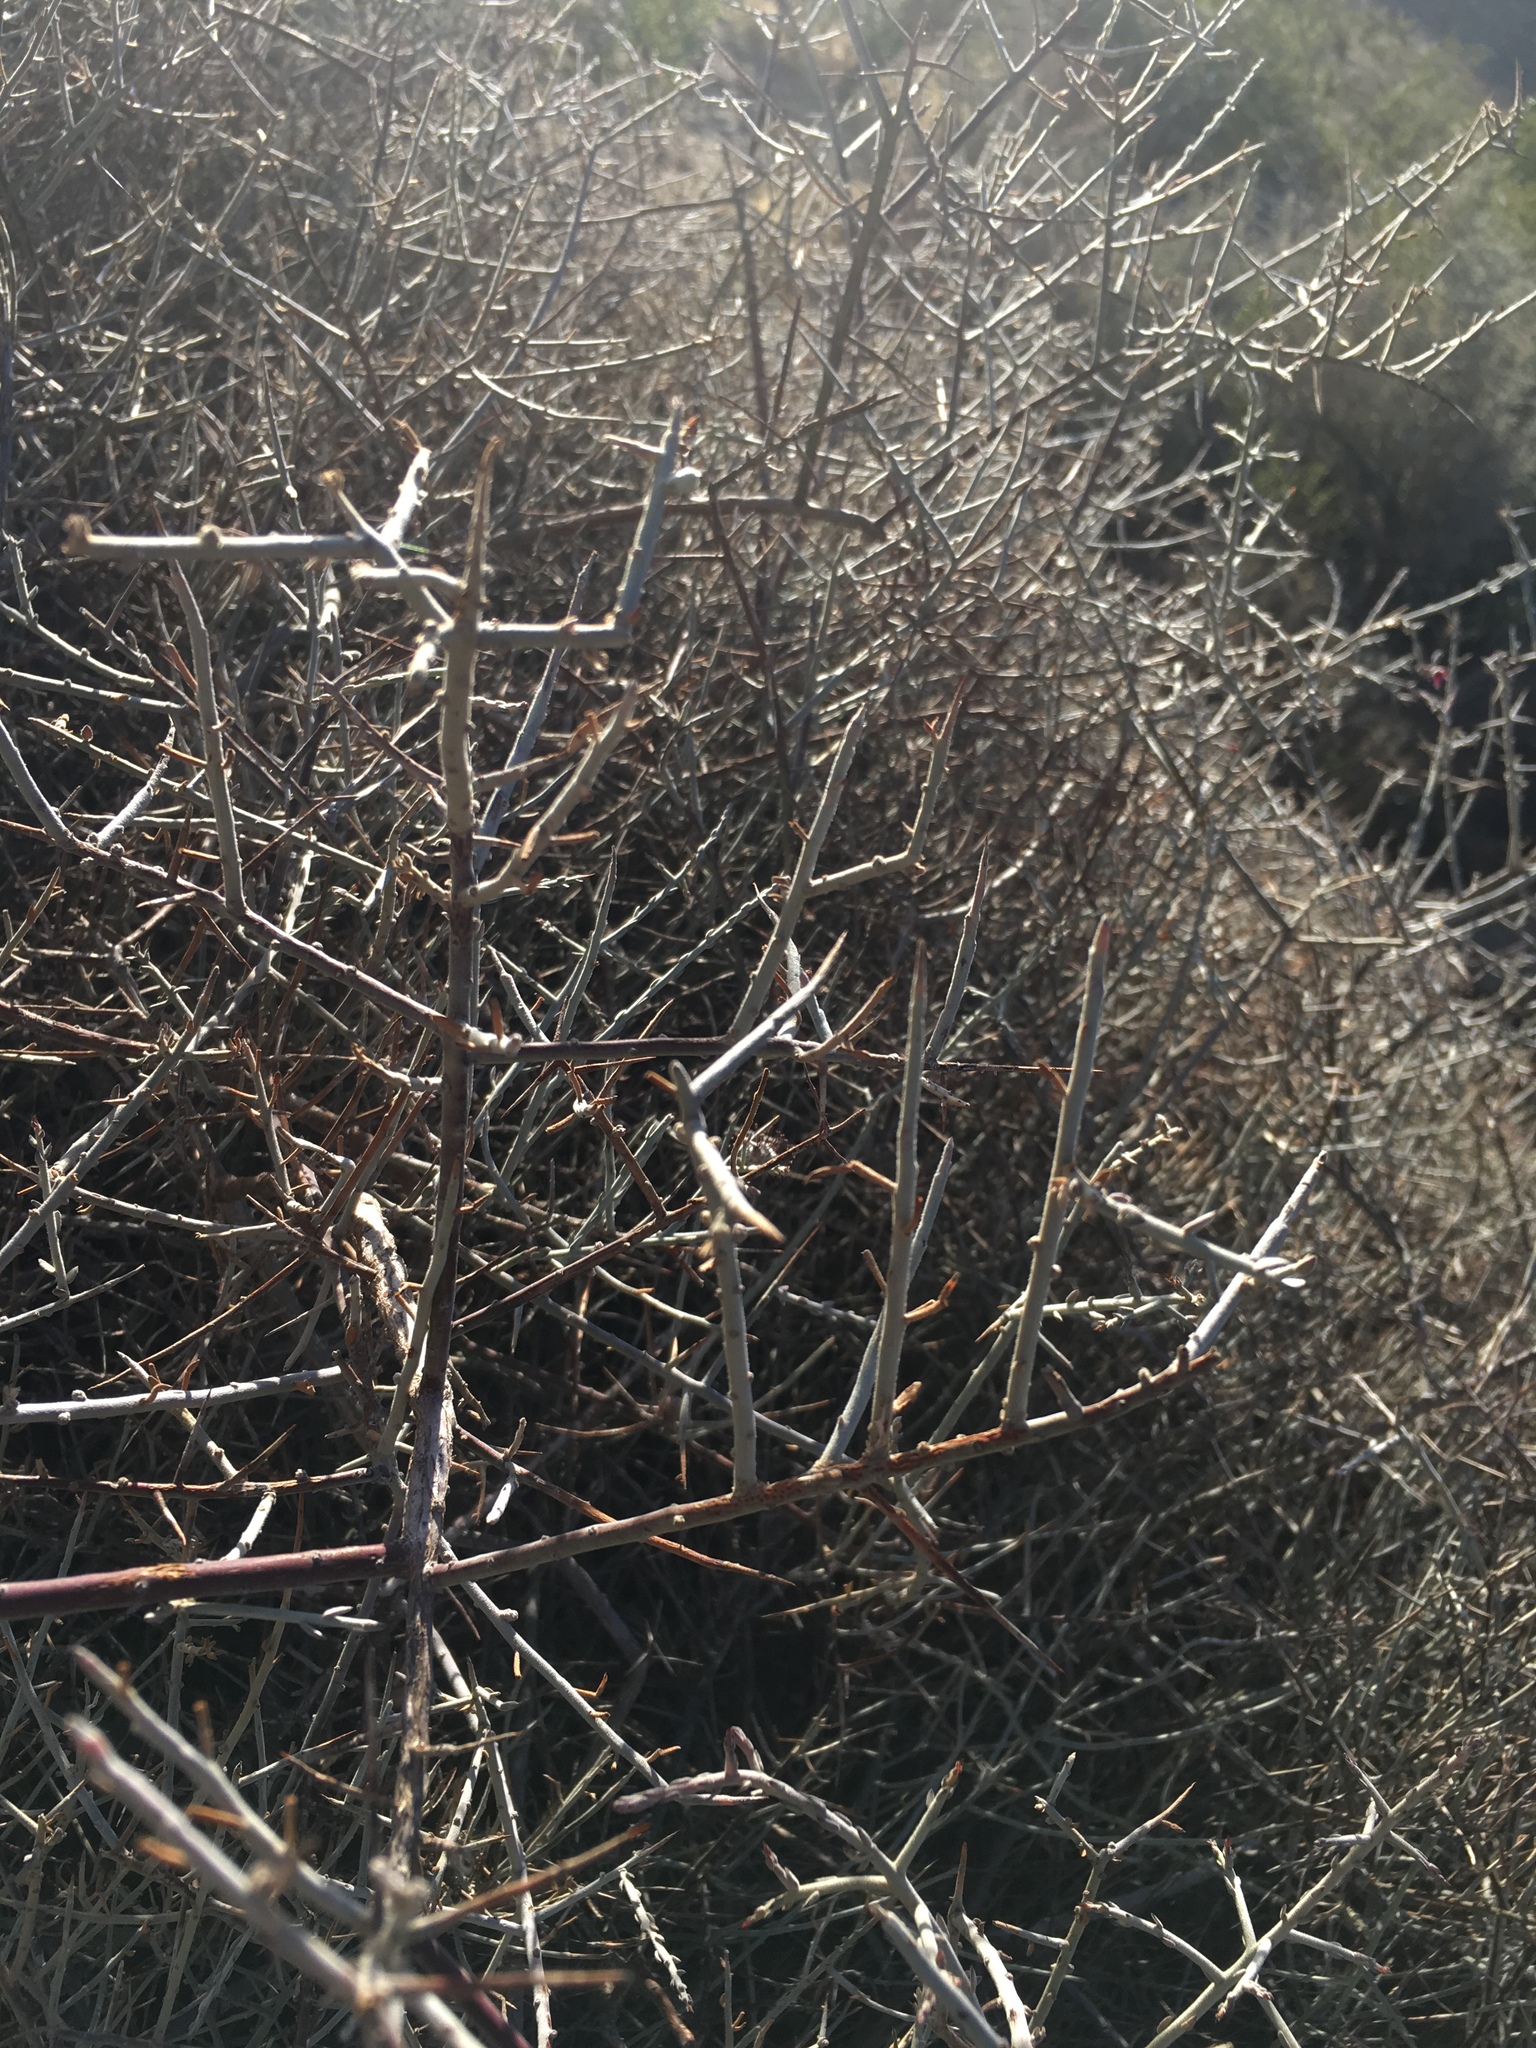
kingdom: Plantae
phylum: Tracheophyta
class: Magnoliopsida
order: Zygophyllales
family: Krameriaceae
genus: Krameria
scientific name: Krameria bicolor
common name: White ratany
